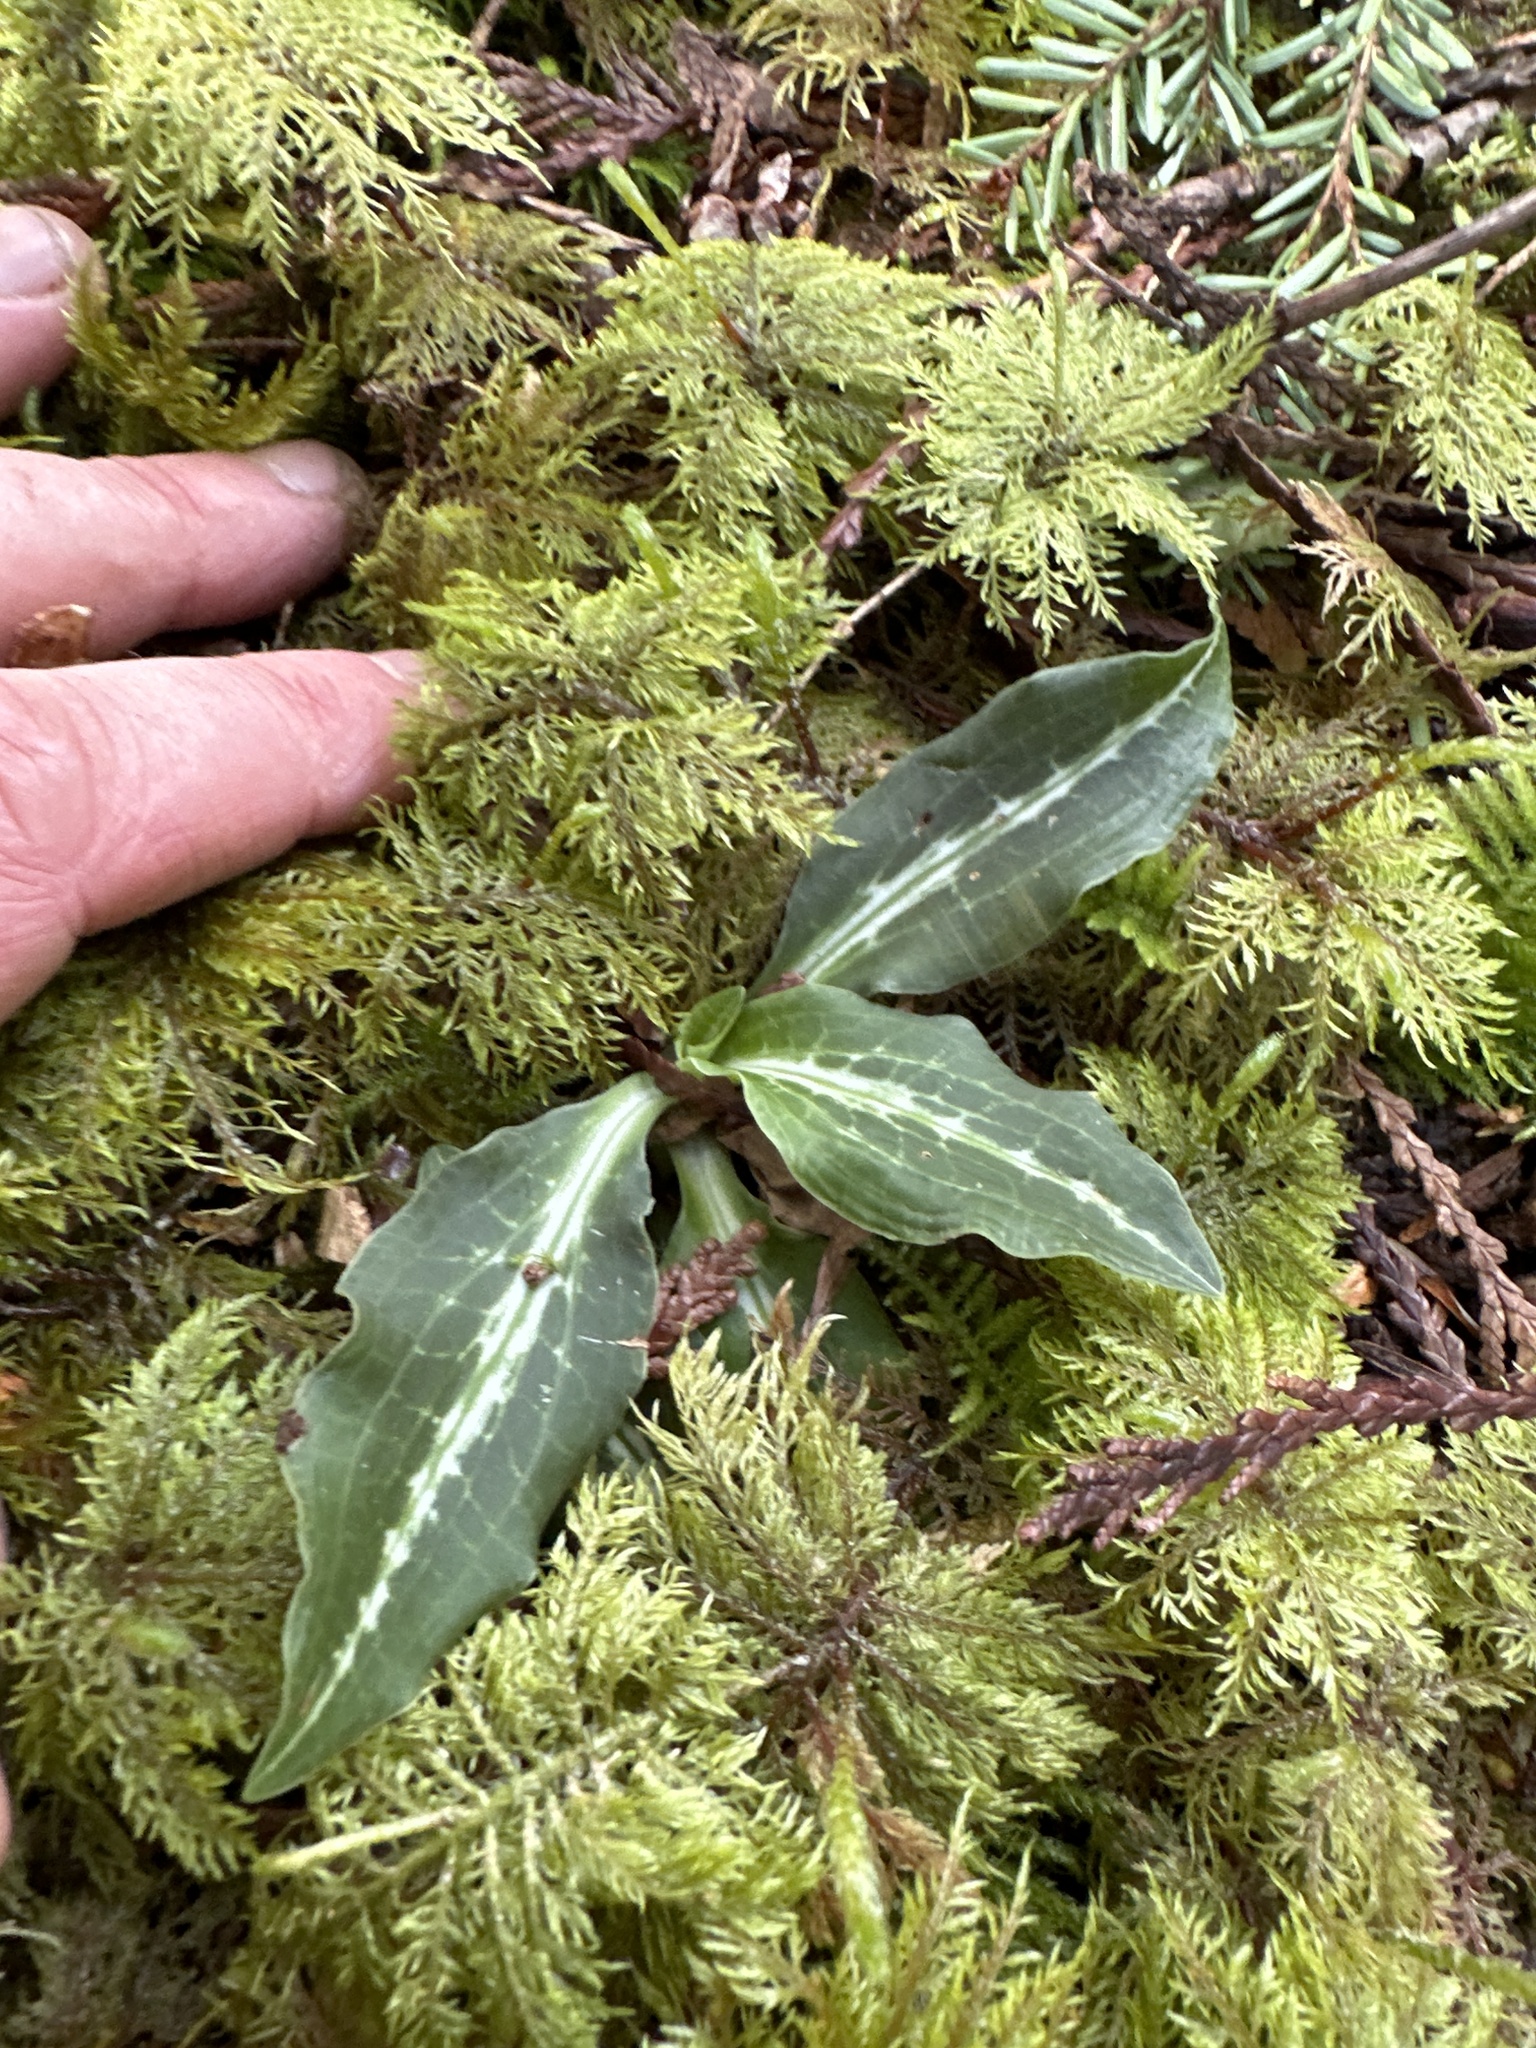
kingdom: Plantae
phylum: Tracheophyta
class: Liliopsida
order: Asparagales
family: Orchidaceae
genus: Goodyera
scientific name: Goodyera oblongifolia
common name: Giant rattlesnake-plantain
